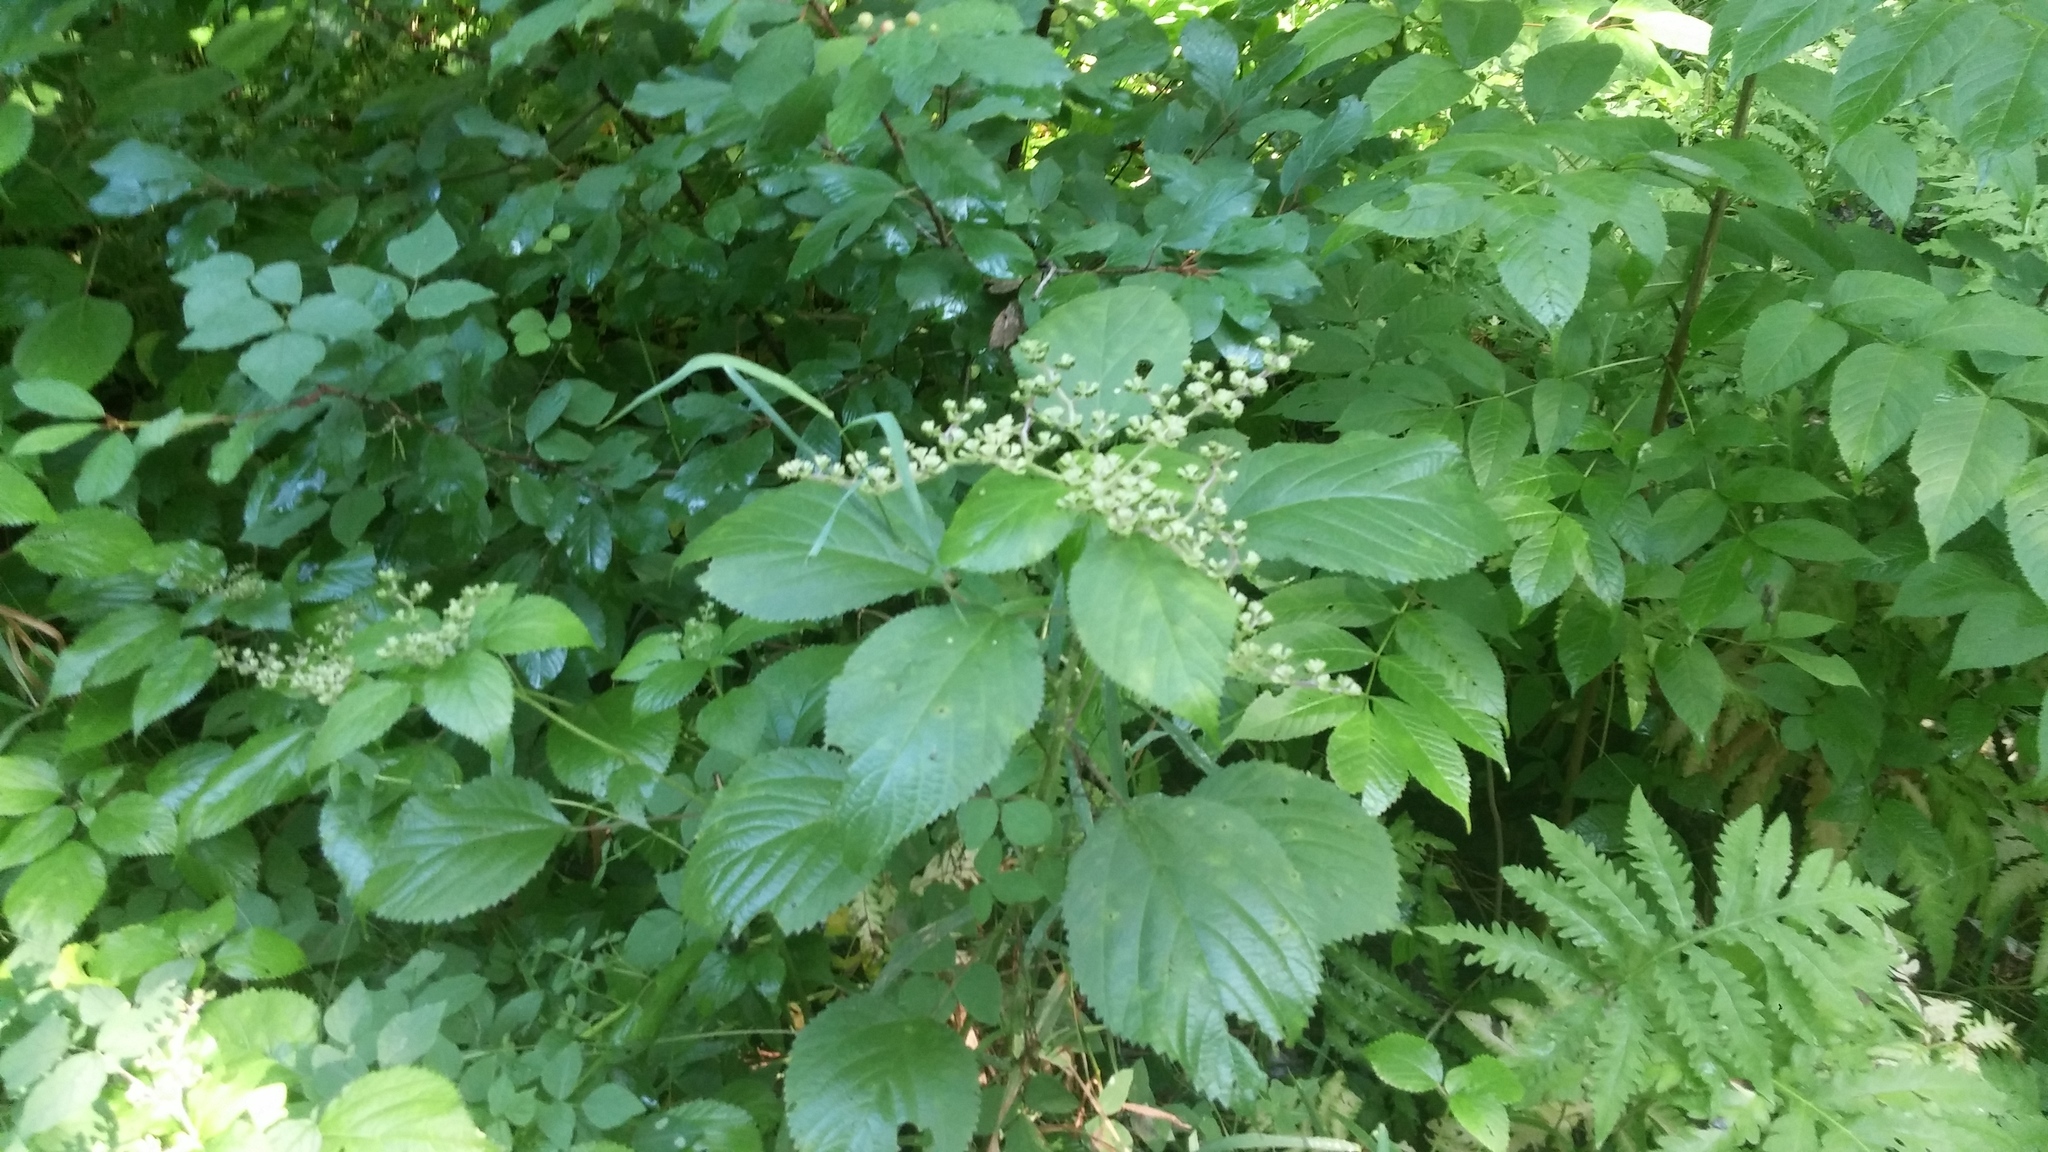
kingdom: Plantae
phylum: Tracheophyta
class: Magnoliopsida
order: Rosales
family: Urticaceae
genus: Laportea
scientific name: Laportea canadensis
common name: Canada nettle
